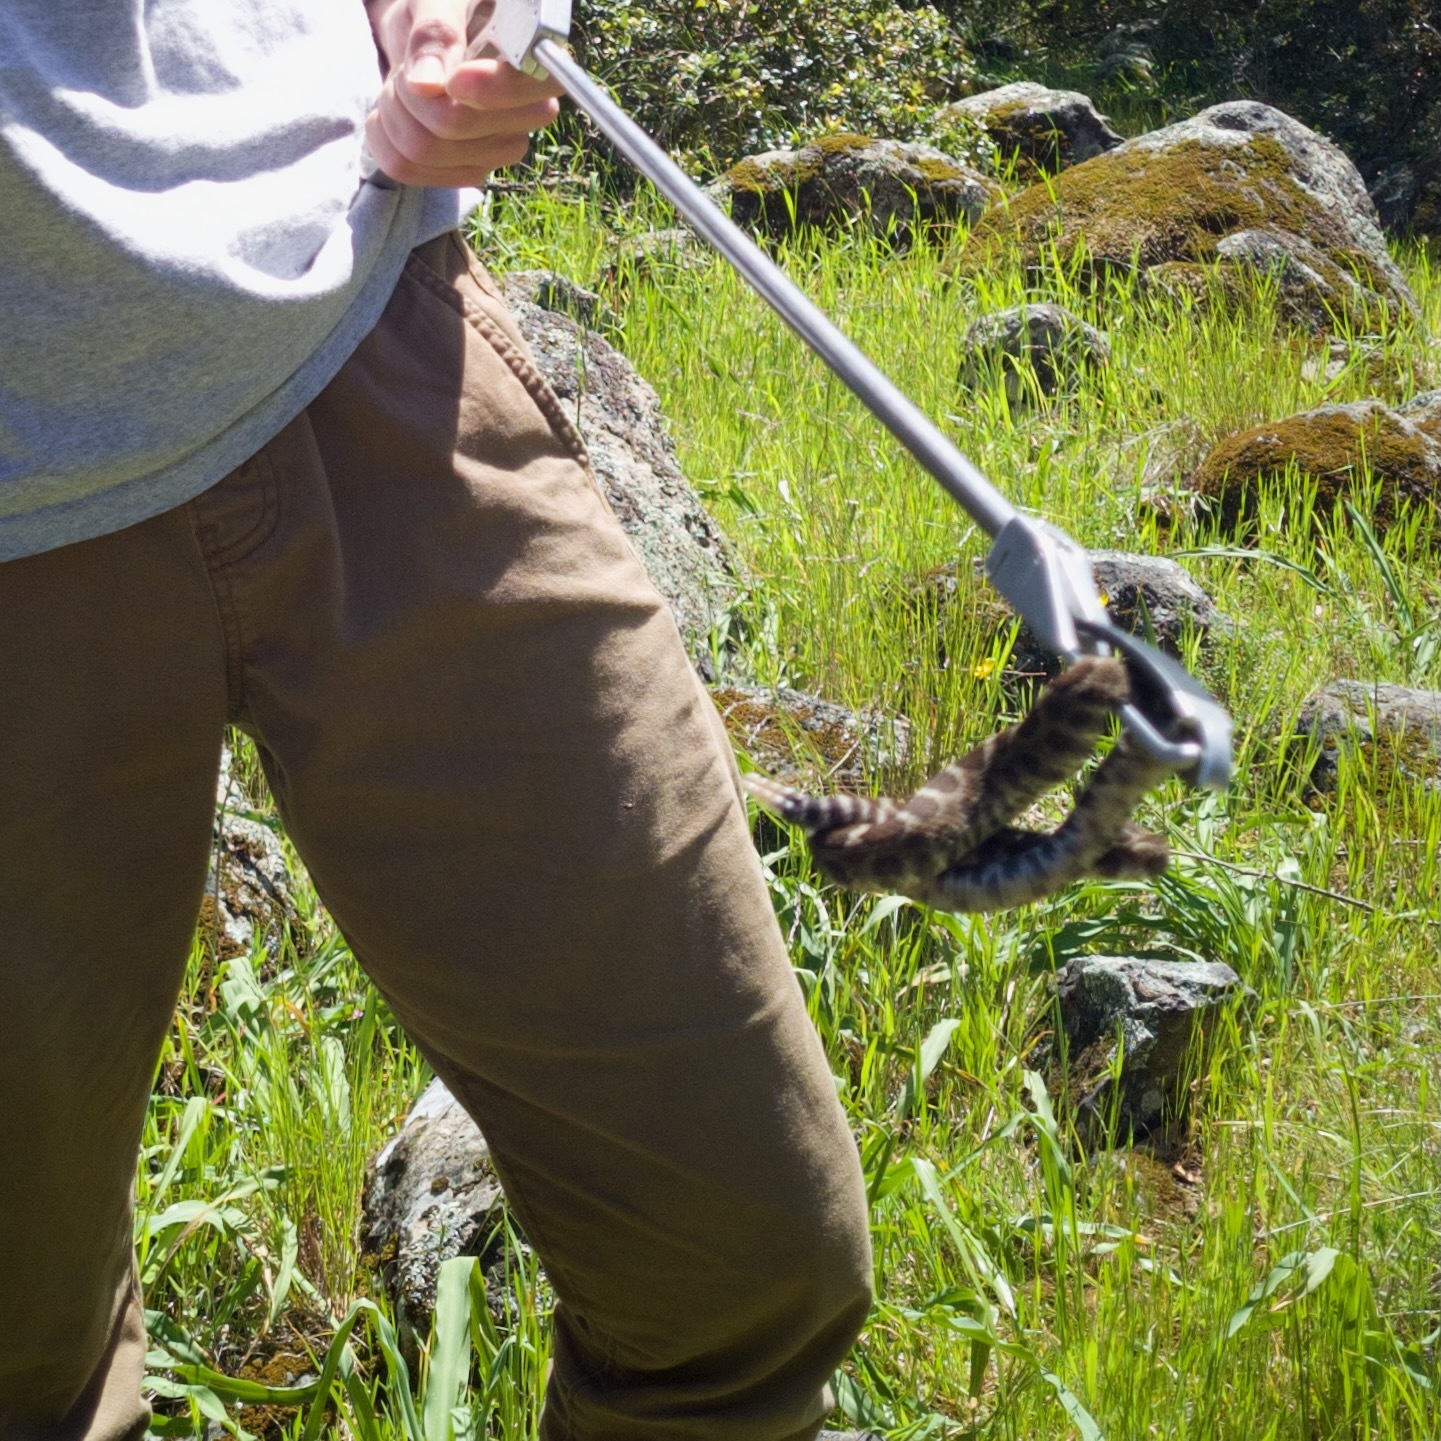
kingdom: Animalia
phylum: Chordata
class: Squamata
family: Viperidae
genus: Crotalus
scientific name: Crotalus oreganus
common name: Abyssus
